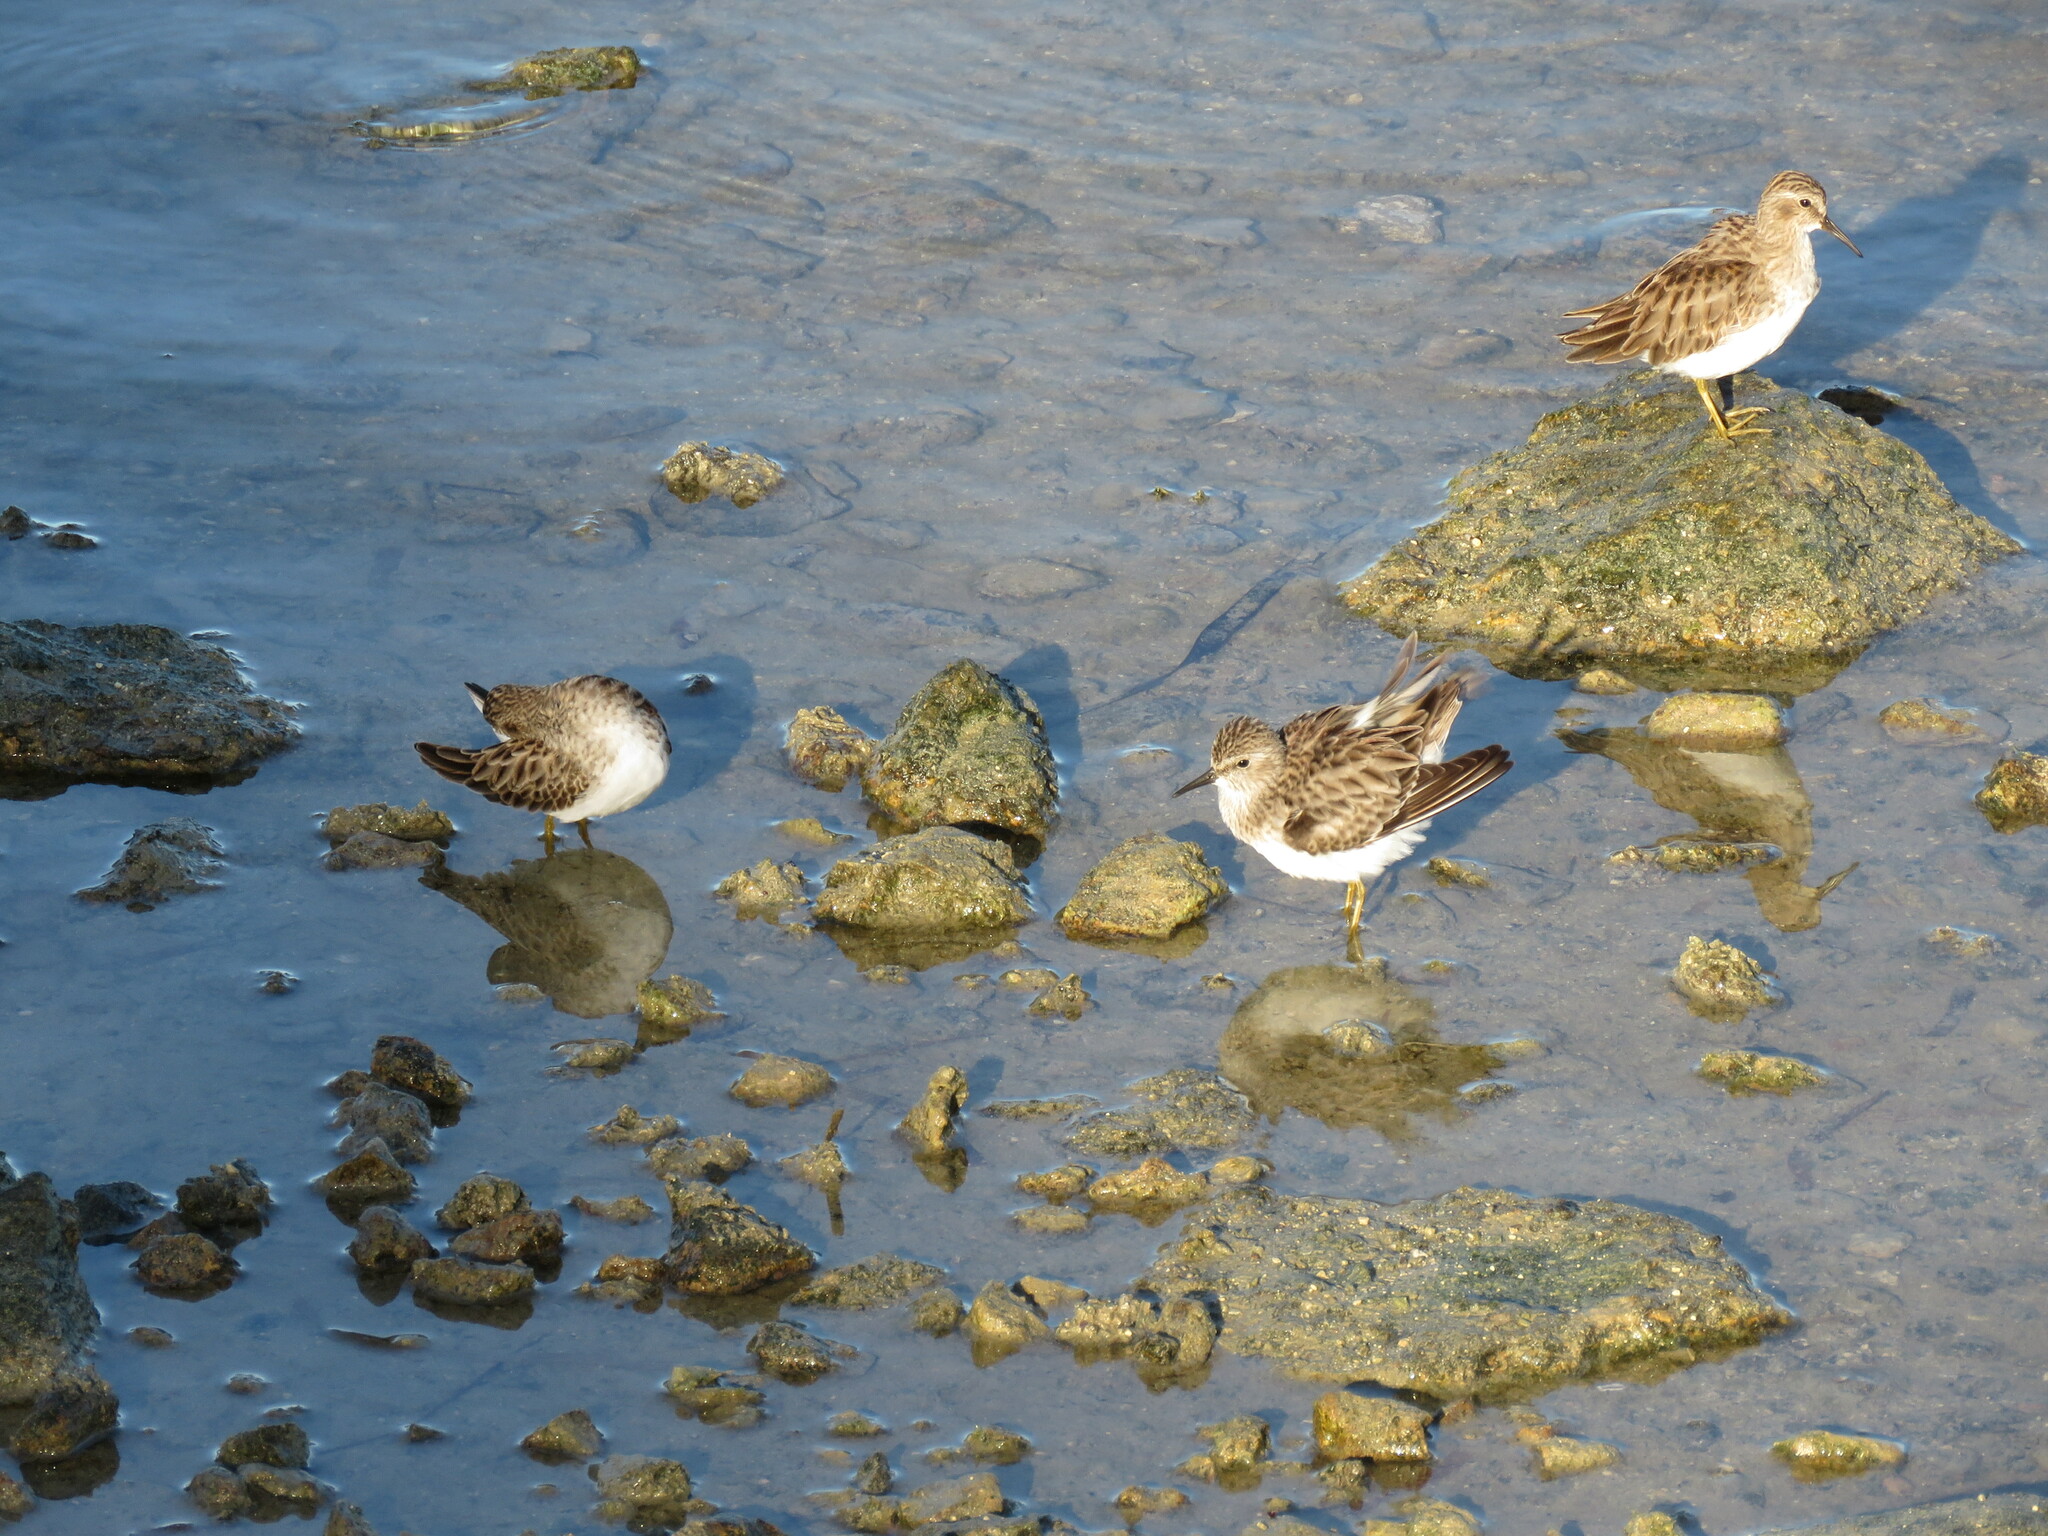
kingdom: Animalia
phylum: Chordata
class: Aves
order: Charadriiformes
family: Scolopacidae
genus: Calidris
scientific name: Calidris minutilla
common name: Least sandpiper
